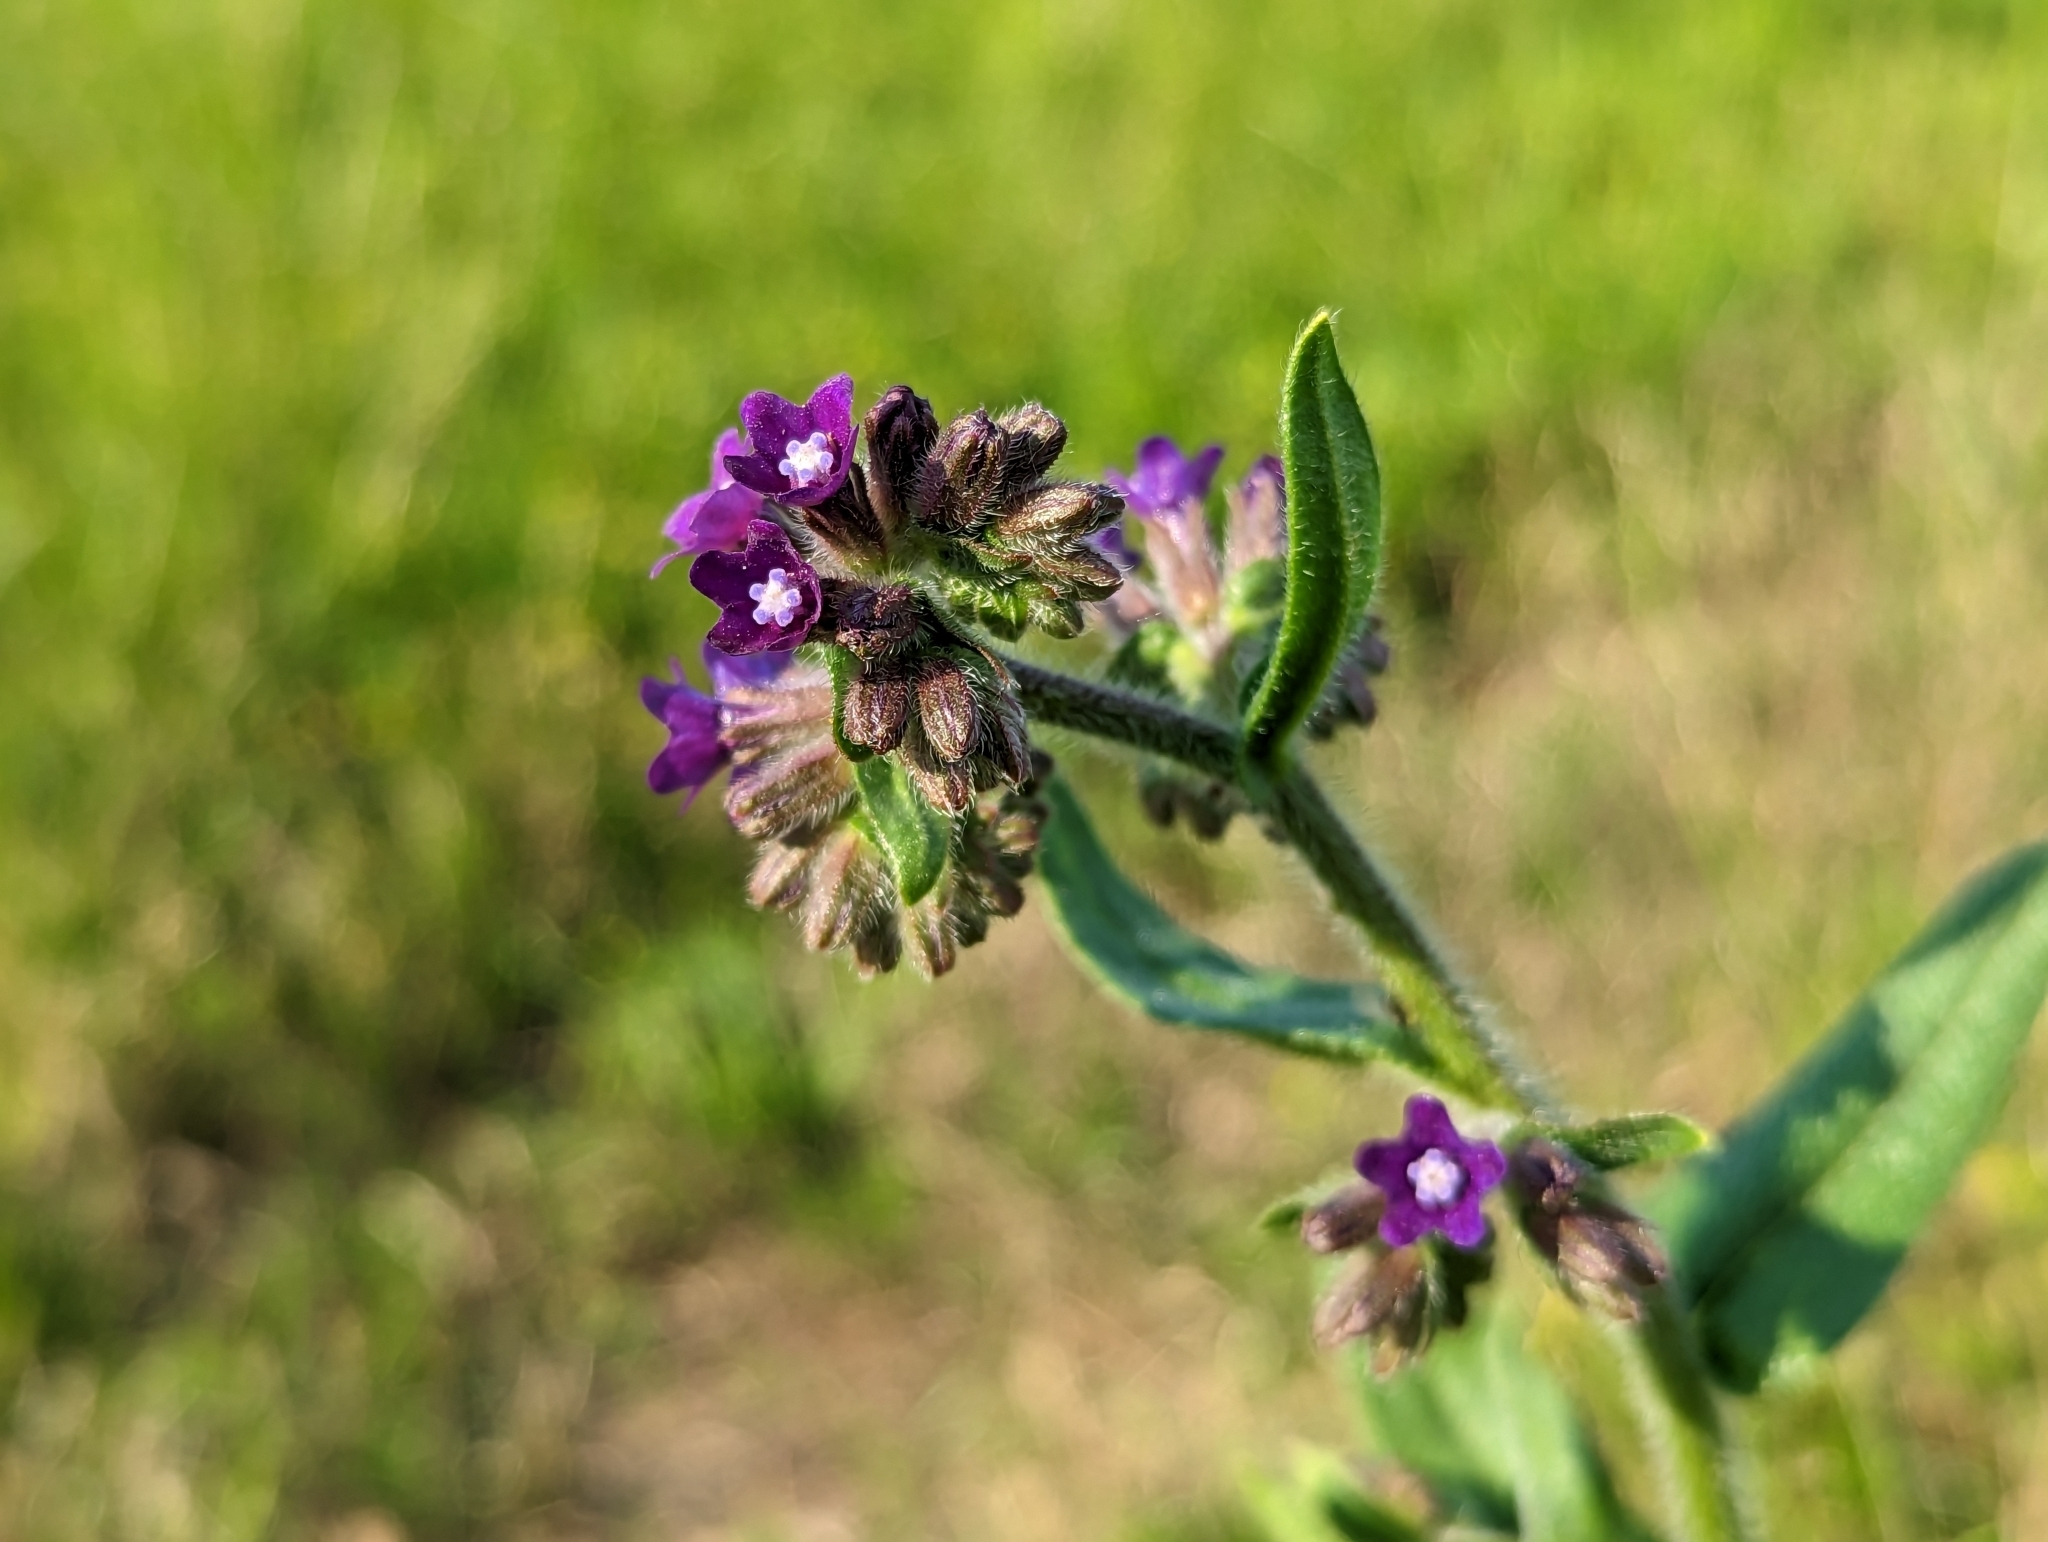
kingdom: Plantae
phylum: Tracheophyta
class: Magnoliopsida
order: Boraginales
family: Boraginaceae
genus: Anchusa
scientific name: Anchusa officinalis
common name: Alkanet
